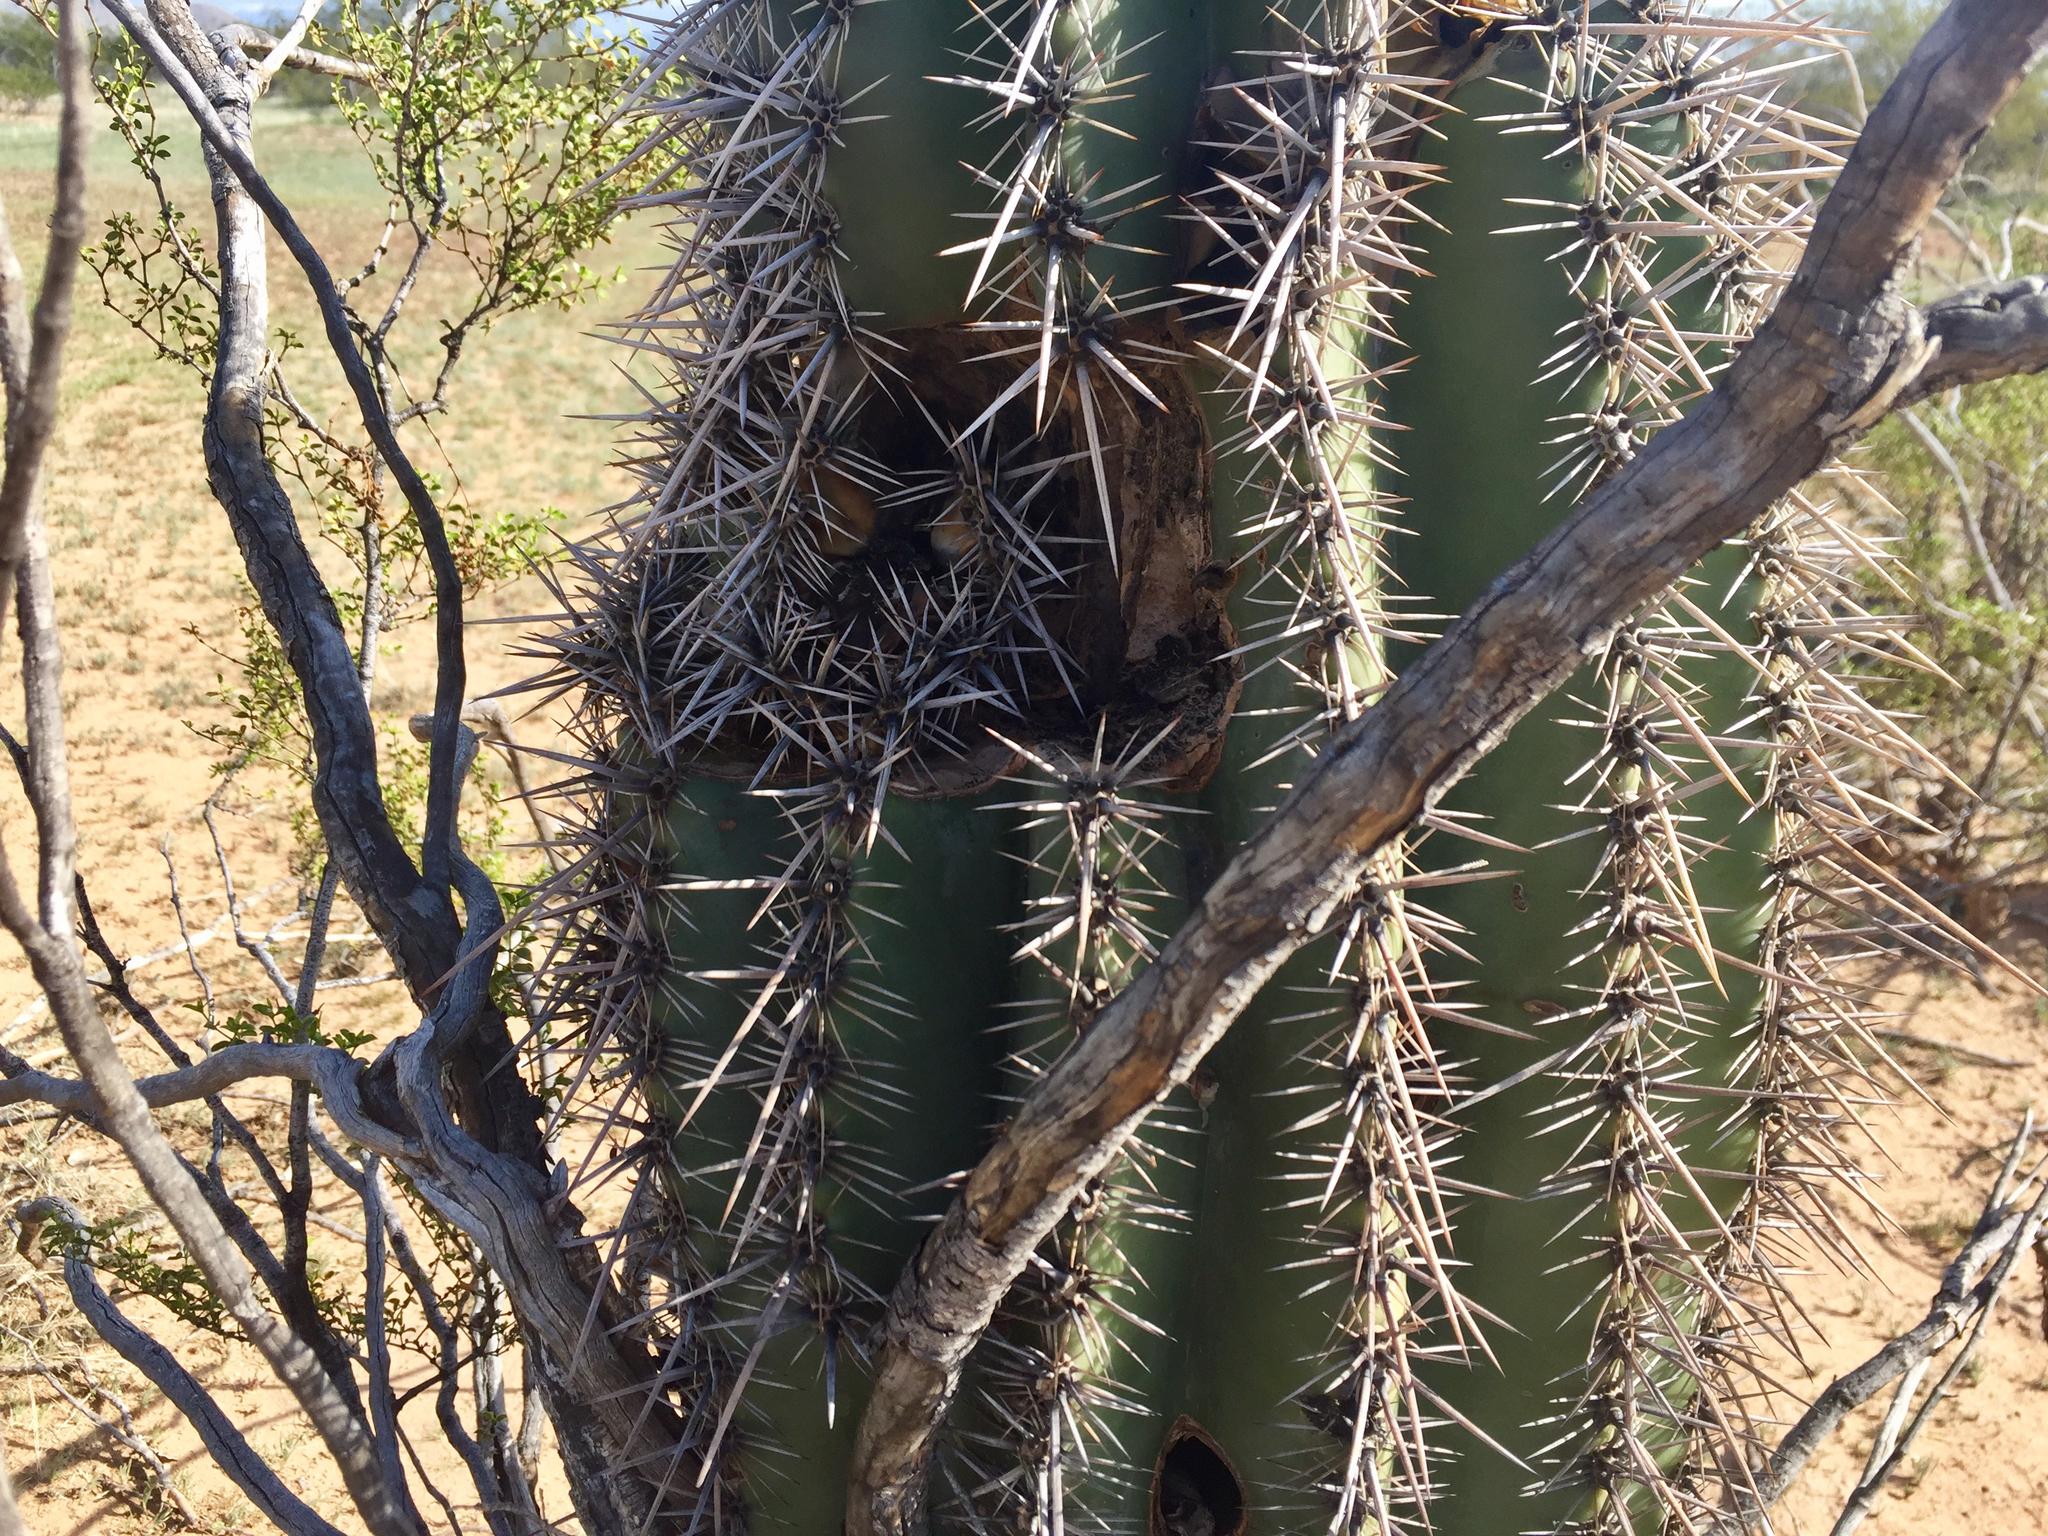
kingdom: Plantae
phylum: Tracheophyta
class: Magnoliopsida
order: Caryophyllales
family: Cactaceae
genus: Carnegiea
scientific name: Carnegiea gigantea
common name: Saguaro
